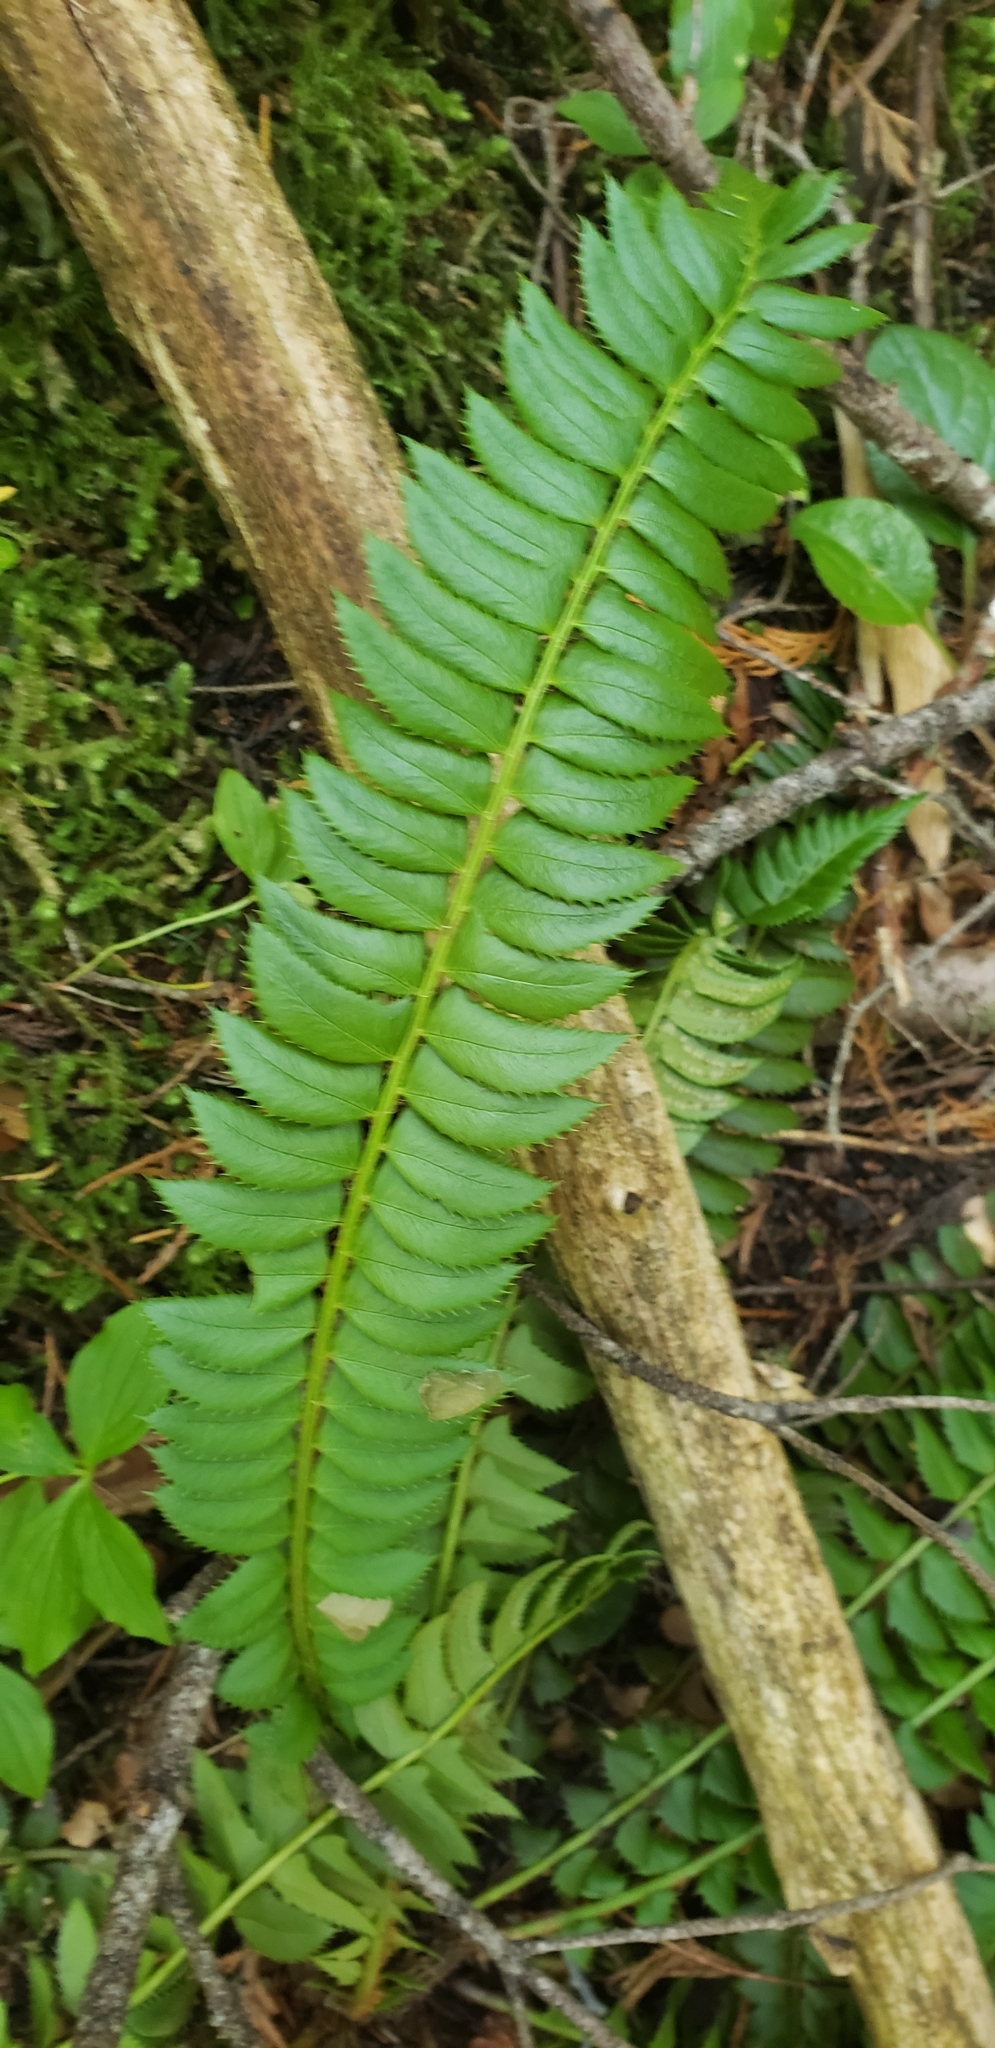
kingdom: Plantae
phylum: Tracheophyta
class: Polypodiopsida
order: Polypodiales
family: Dryopteridaceae
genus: Polystichum
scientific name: Polystichum lonchitis
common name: Holly fern
